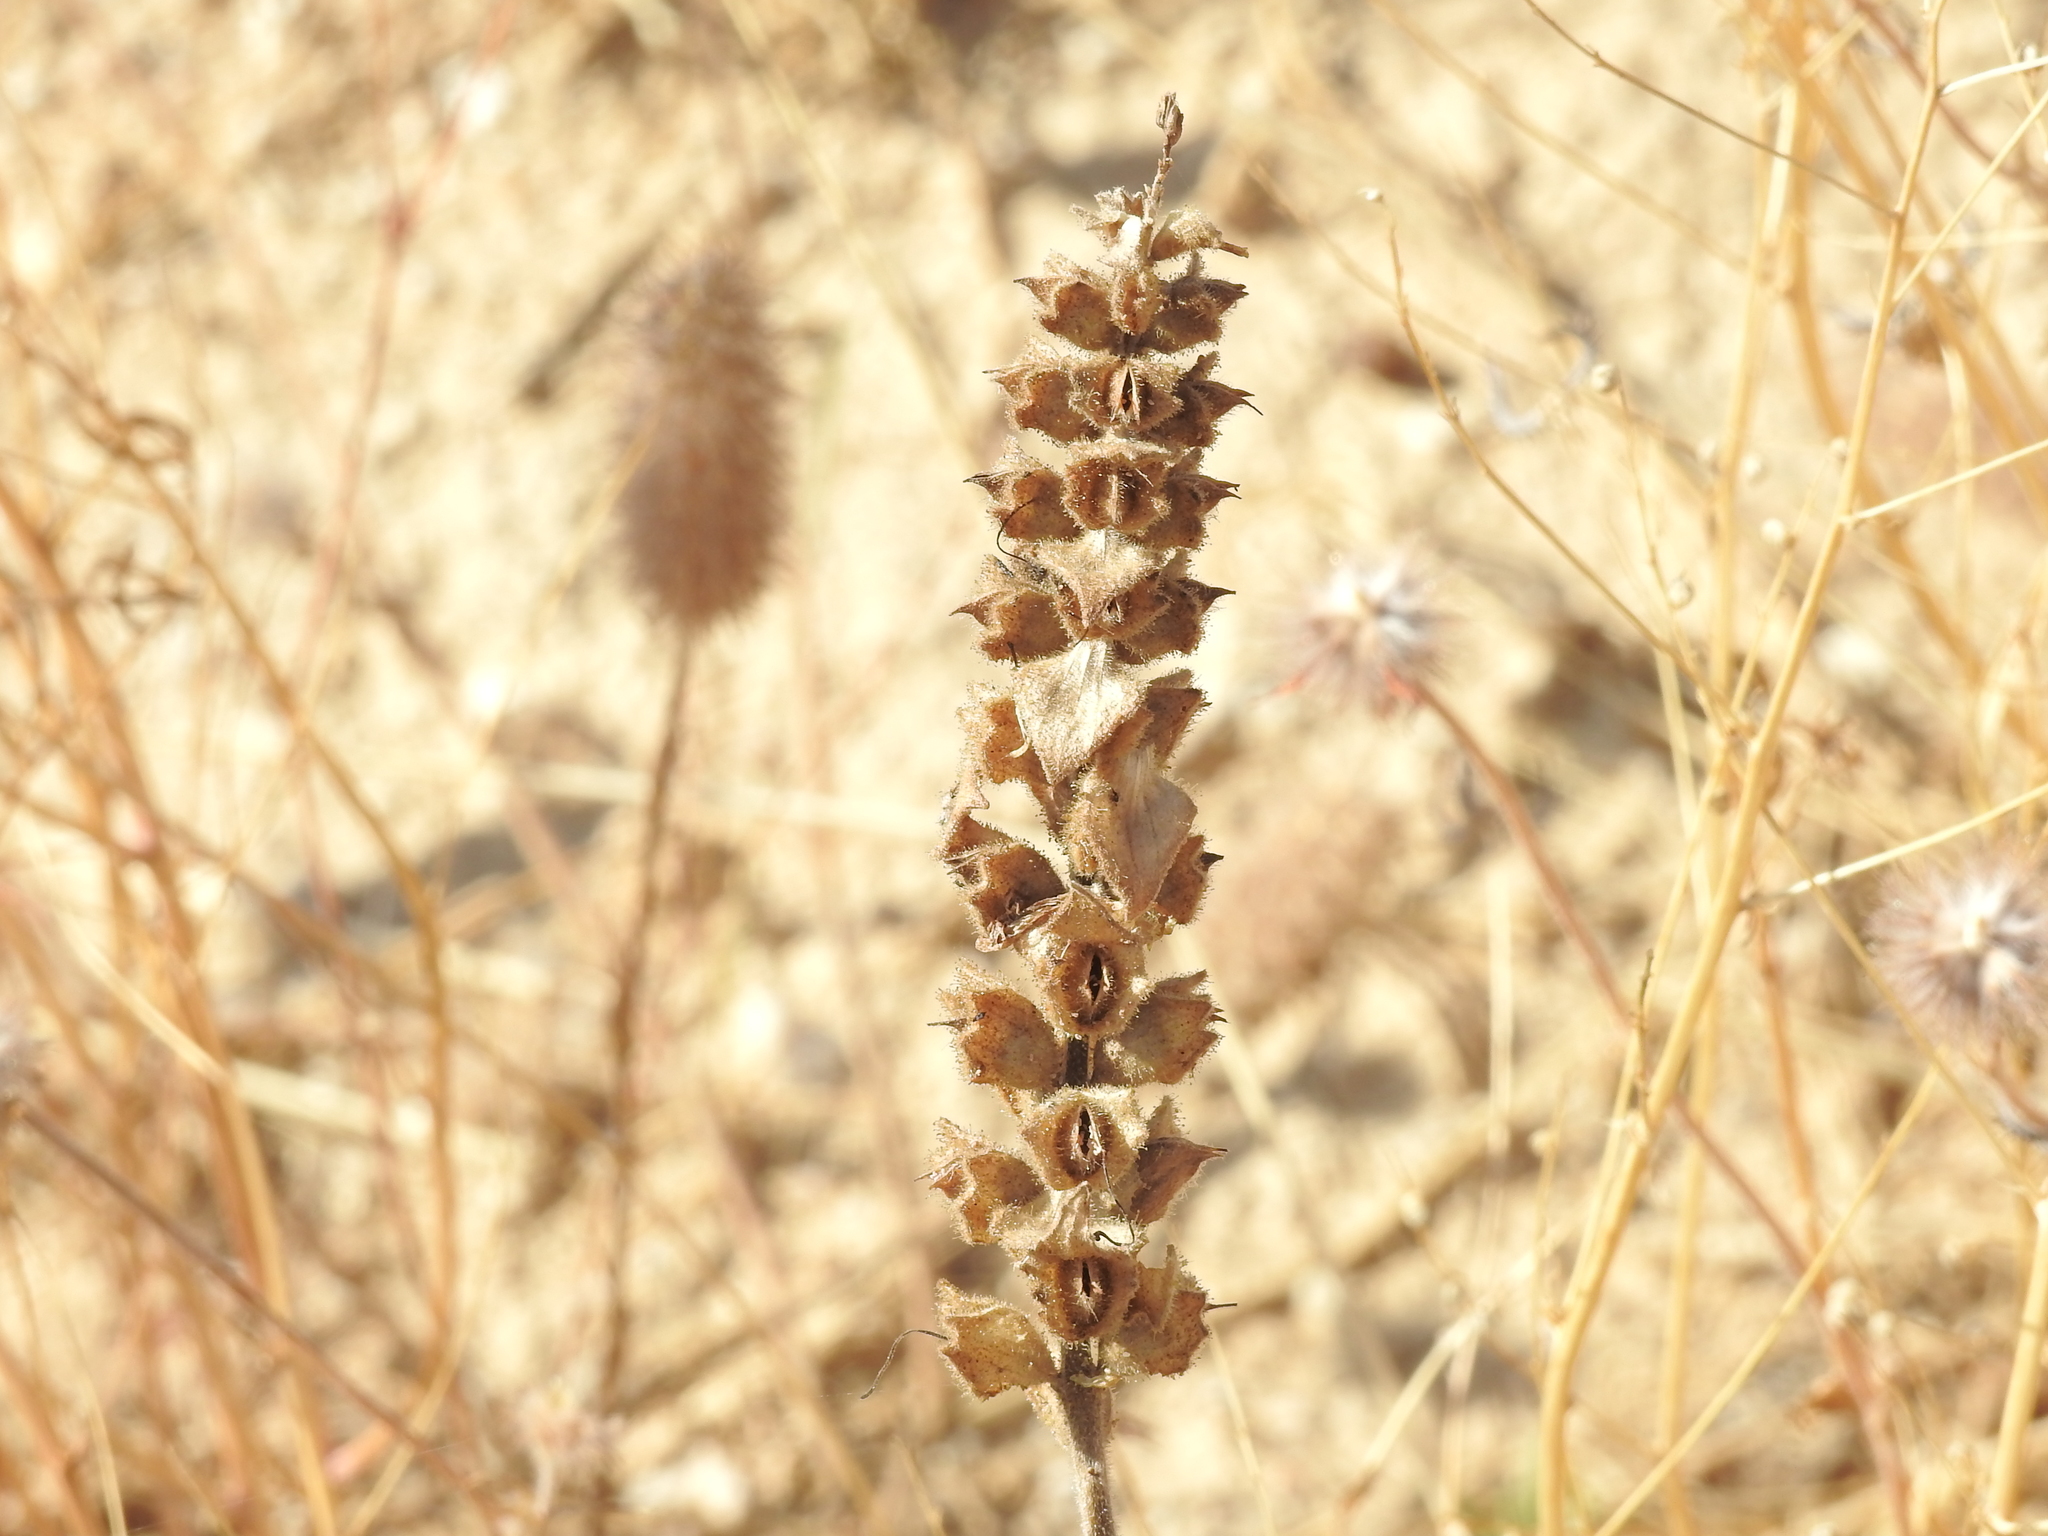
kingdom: Plantae
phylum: Tracheophyta
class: Magnoliopsida
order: Lamiales
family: Orobanchaceae
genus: Bellardia
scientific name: Bellardia trixago
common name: Mediterranean lineseed
